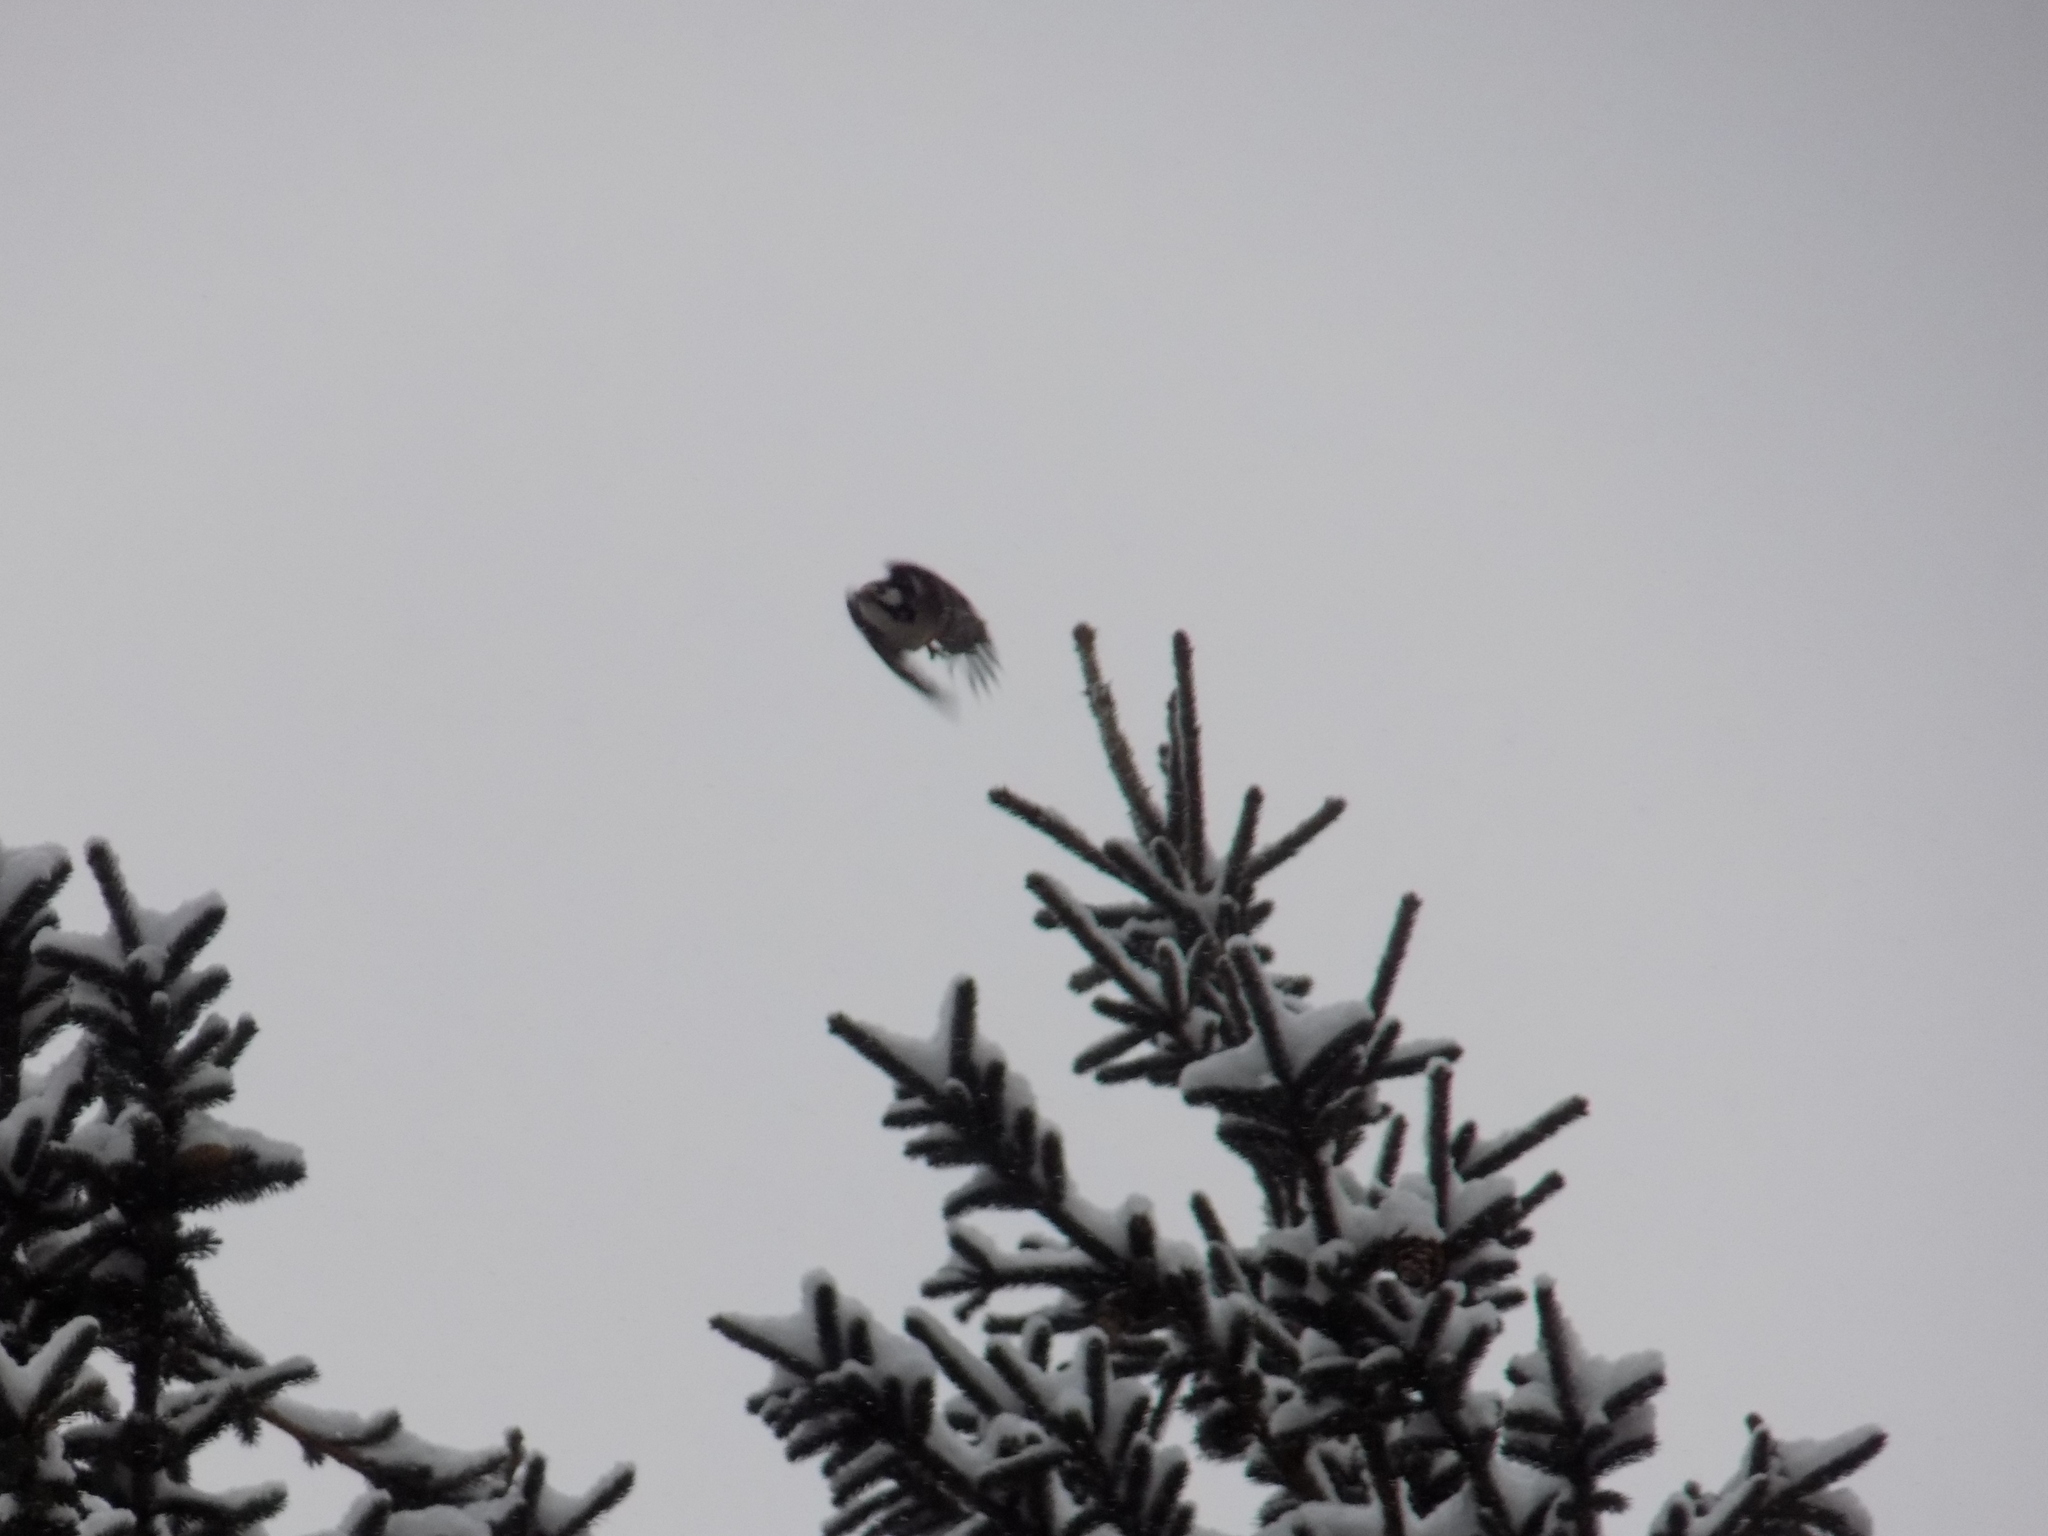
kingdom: Animalia
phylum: Chordata
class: Aves
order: Piciformes
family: Picidae
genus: Dendrocopos
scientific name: Dendrocopos major
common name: Great spotted woodpecker
